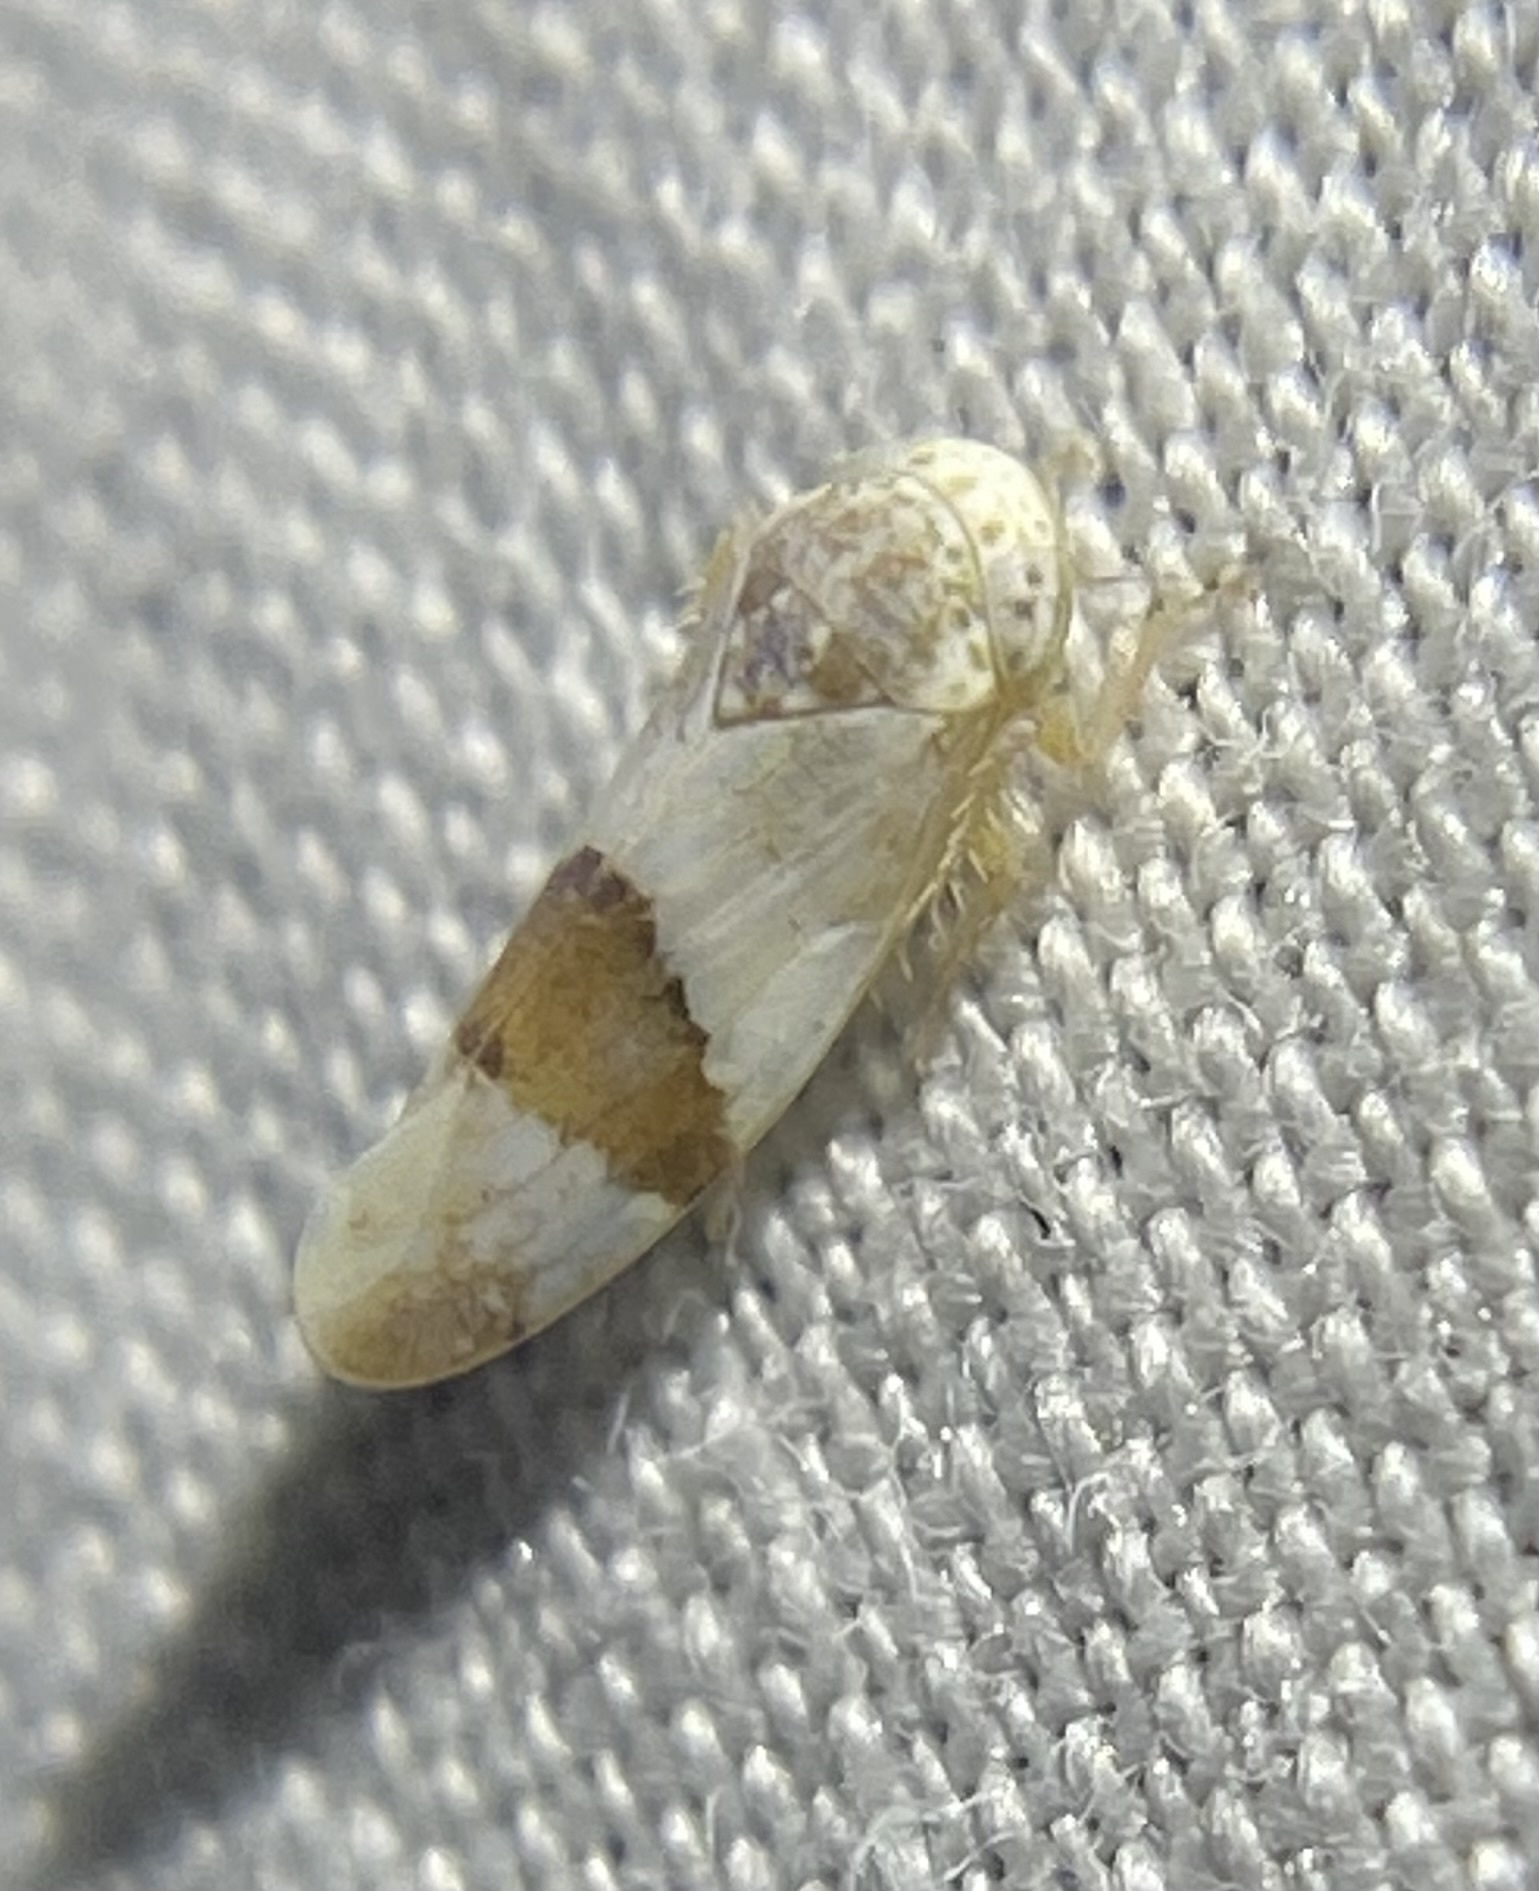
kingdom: Animalia
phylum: Arthropoda
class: Insecta
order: Hemiptera
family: Cicadellidae
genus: Norvellina
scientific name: Norvellina seminuda
